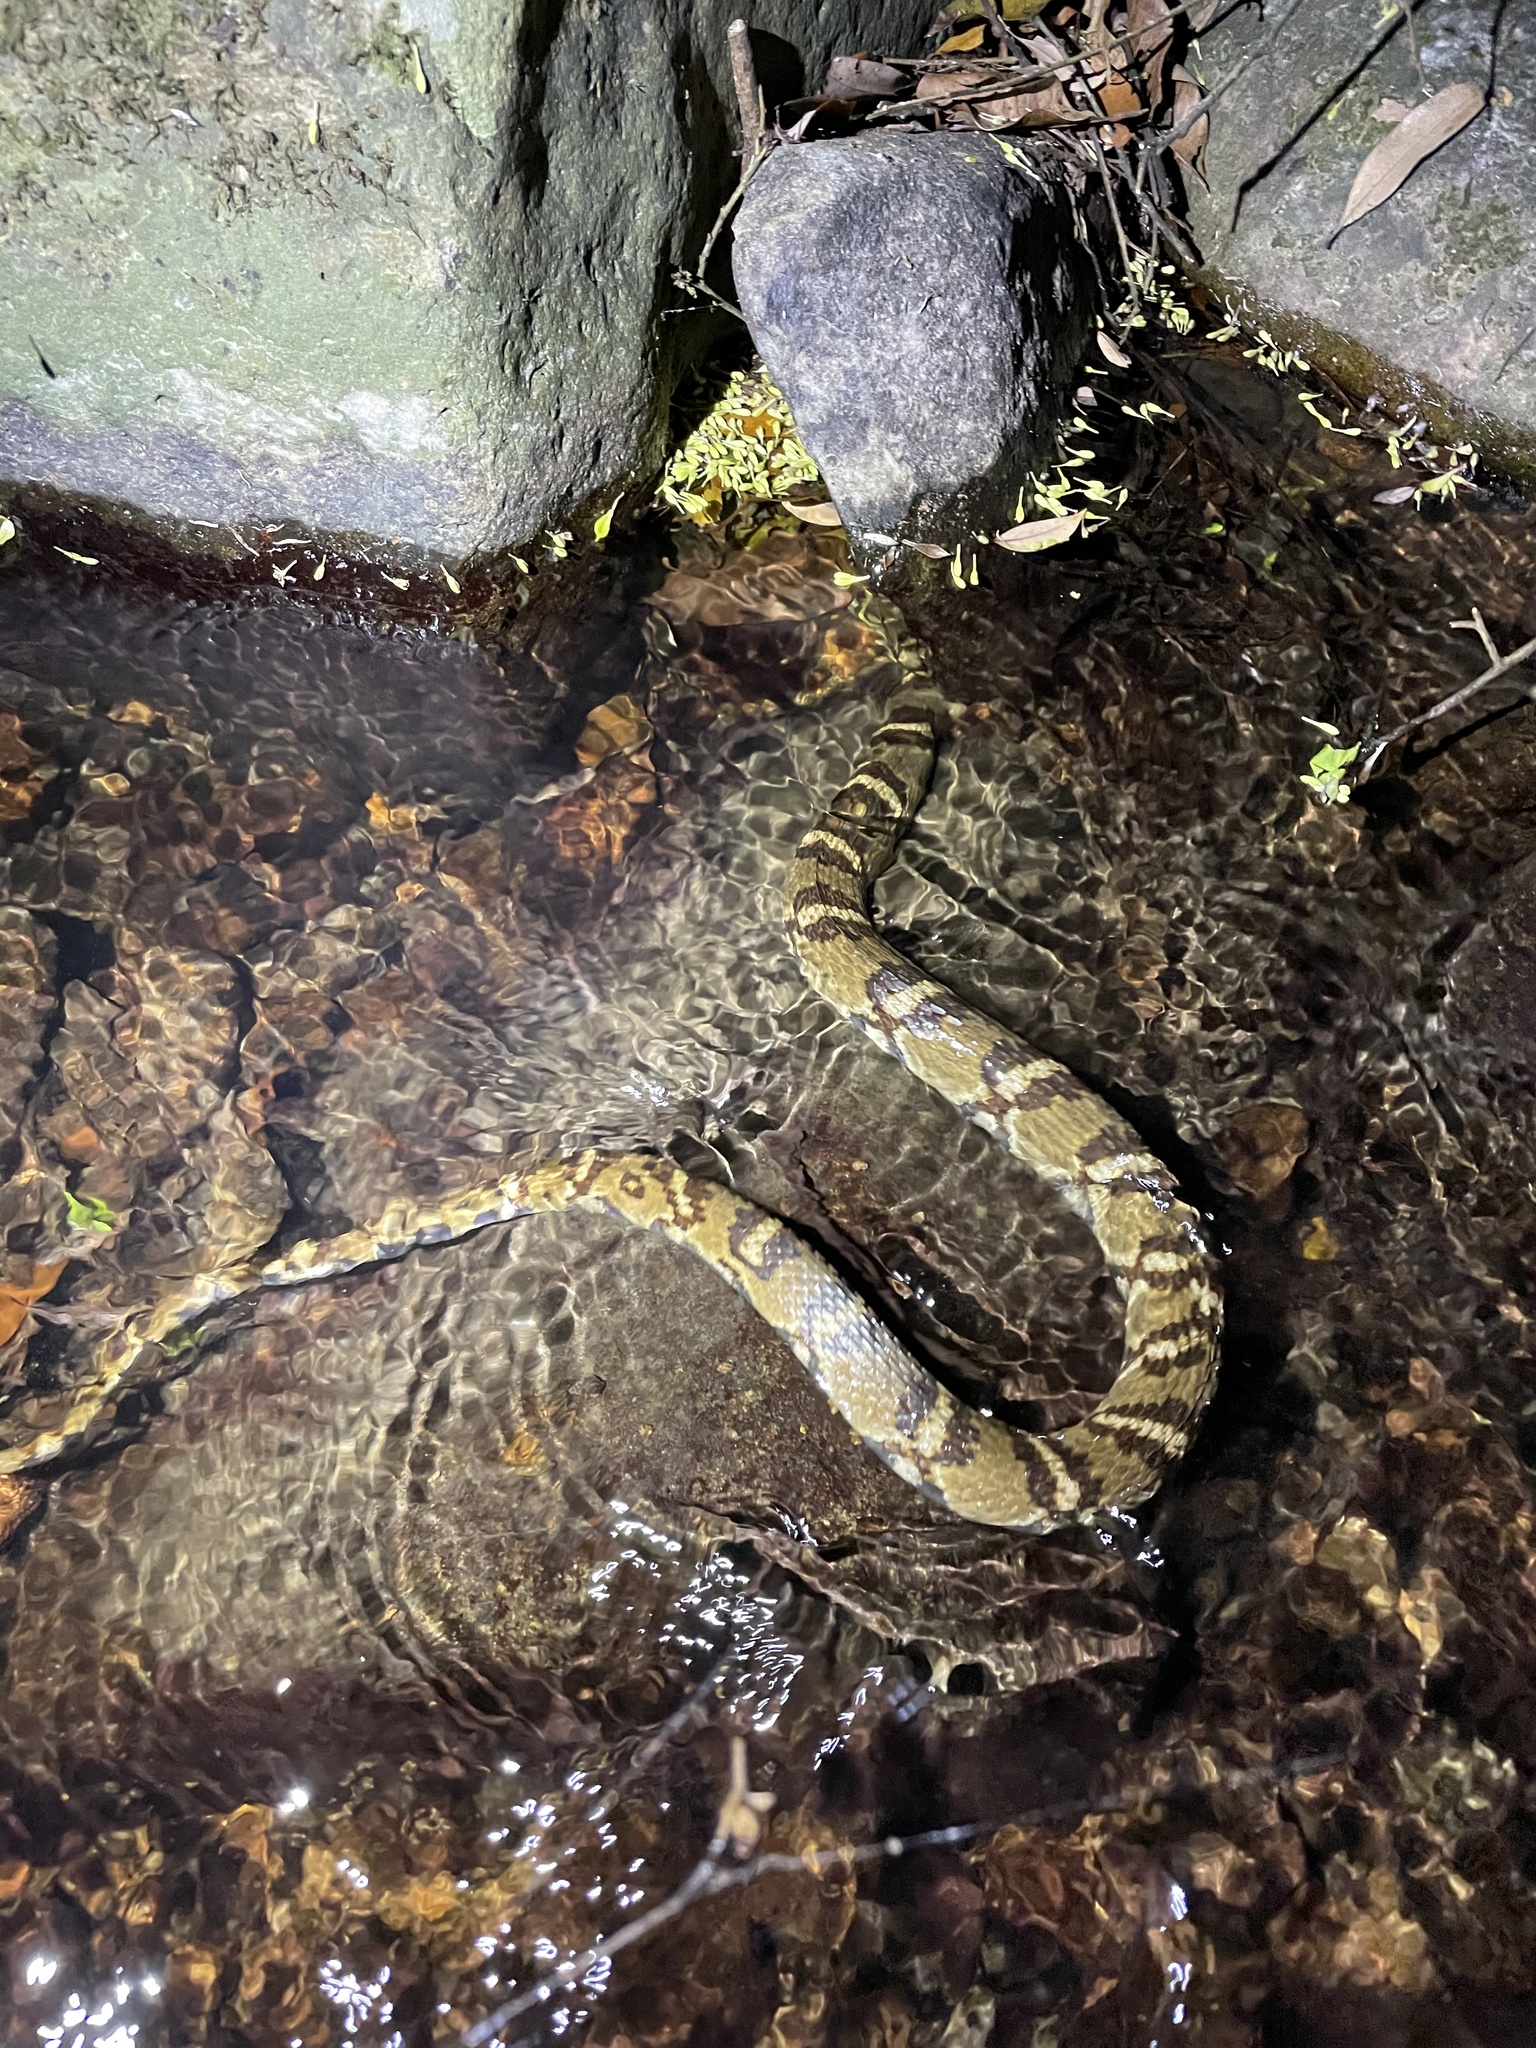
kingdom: Animalia
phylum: Chordata
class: Squamata
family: Colubridae
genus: Trimerodytes
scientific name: Trimerodytes aequifasciatus
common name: Asiatic water snake
